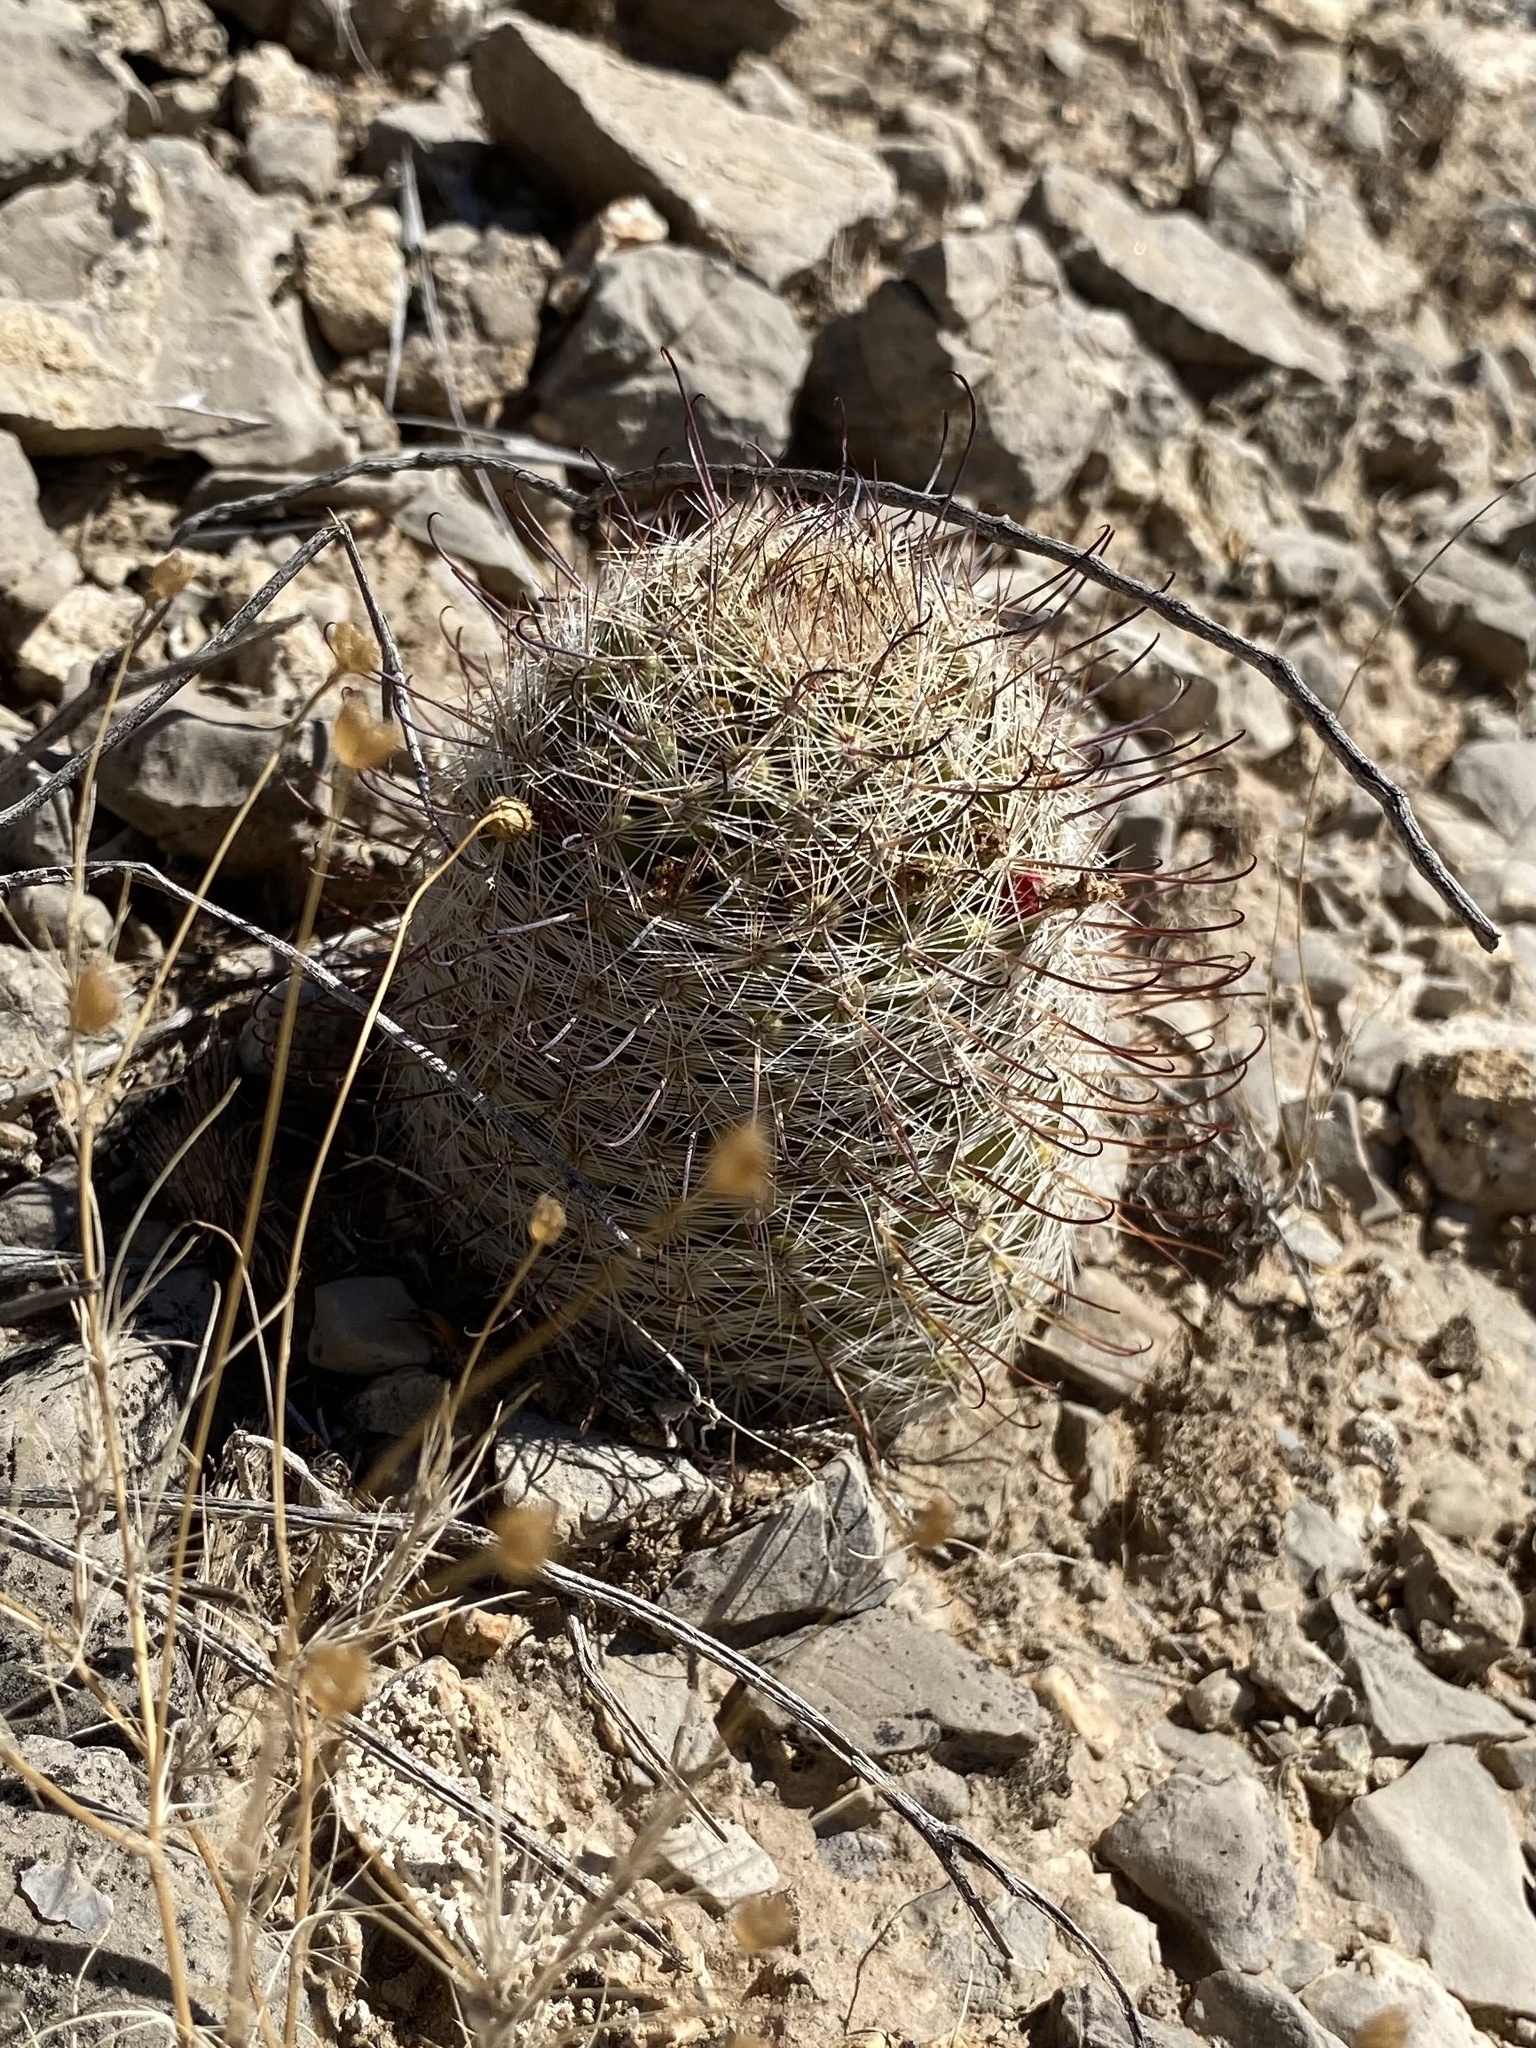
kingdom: Plantae
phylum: Tracheophyta
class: Magnoliopsida
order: Caryophyllales
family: Cactaceae
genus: Cochemiea
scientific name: Cochemiea grahamii
